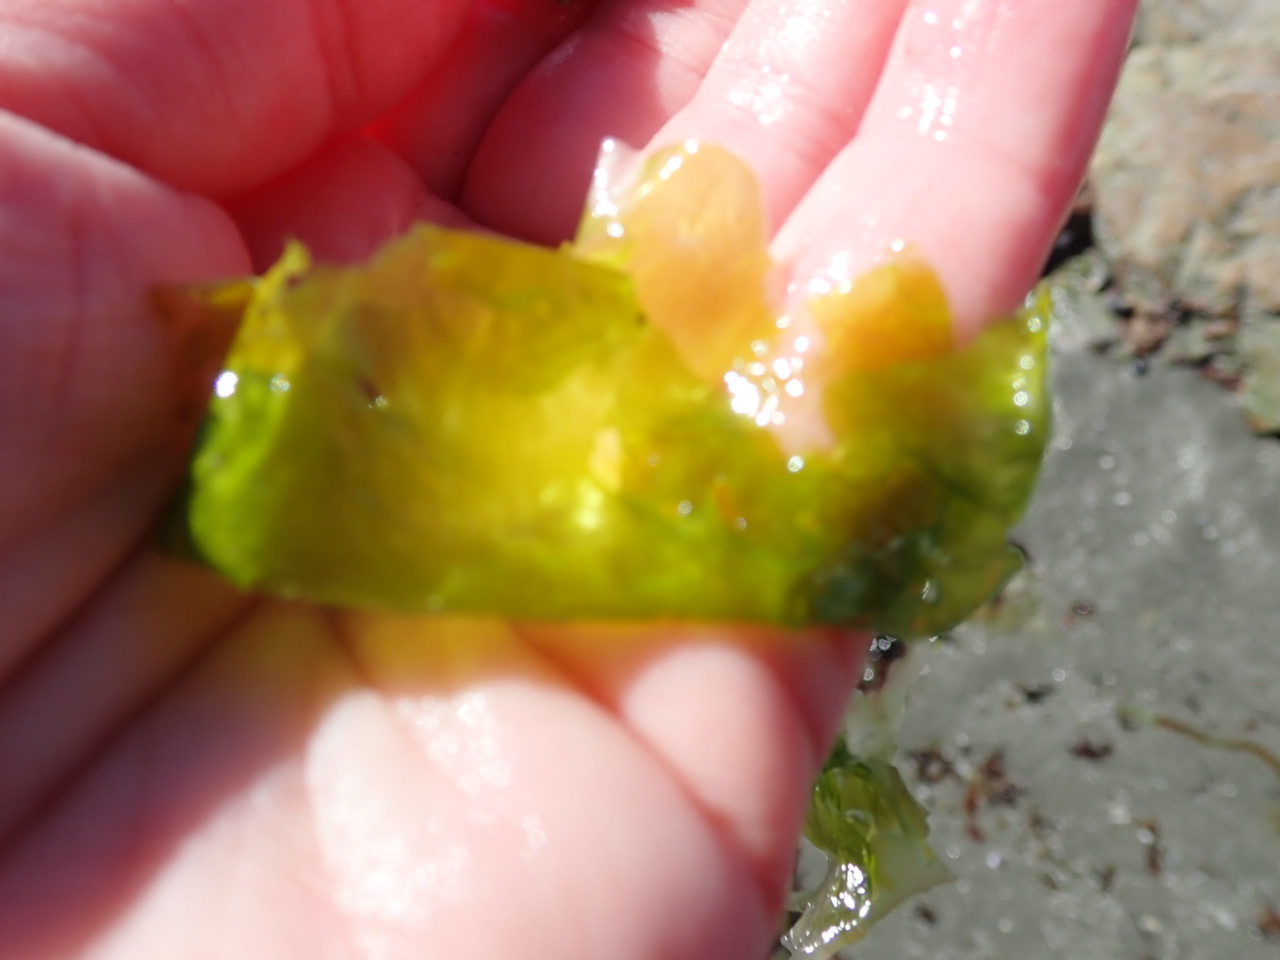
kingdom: Plantae
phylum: Chlorophyta
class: Ulvophyceae
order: Ulvales
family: Ulvaceae
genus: Ulva
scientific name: Ulva lactuca
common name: Sea lettuce
